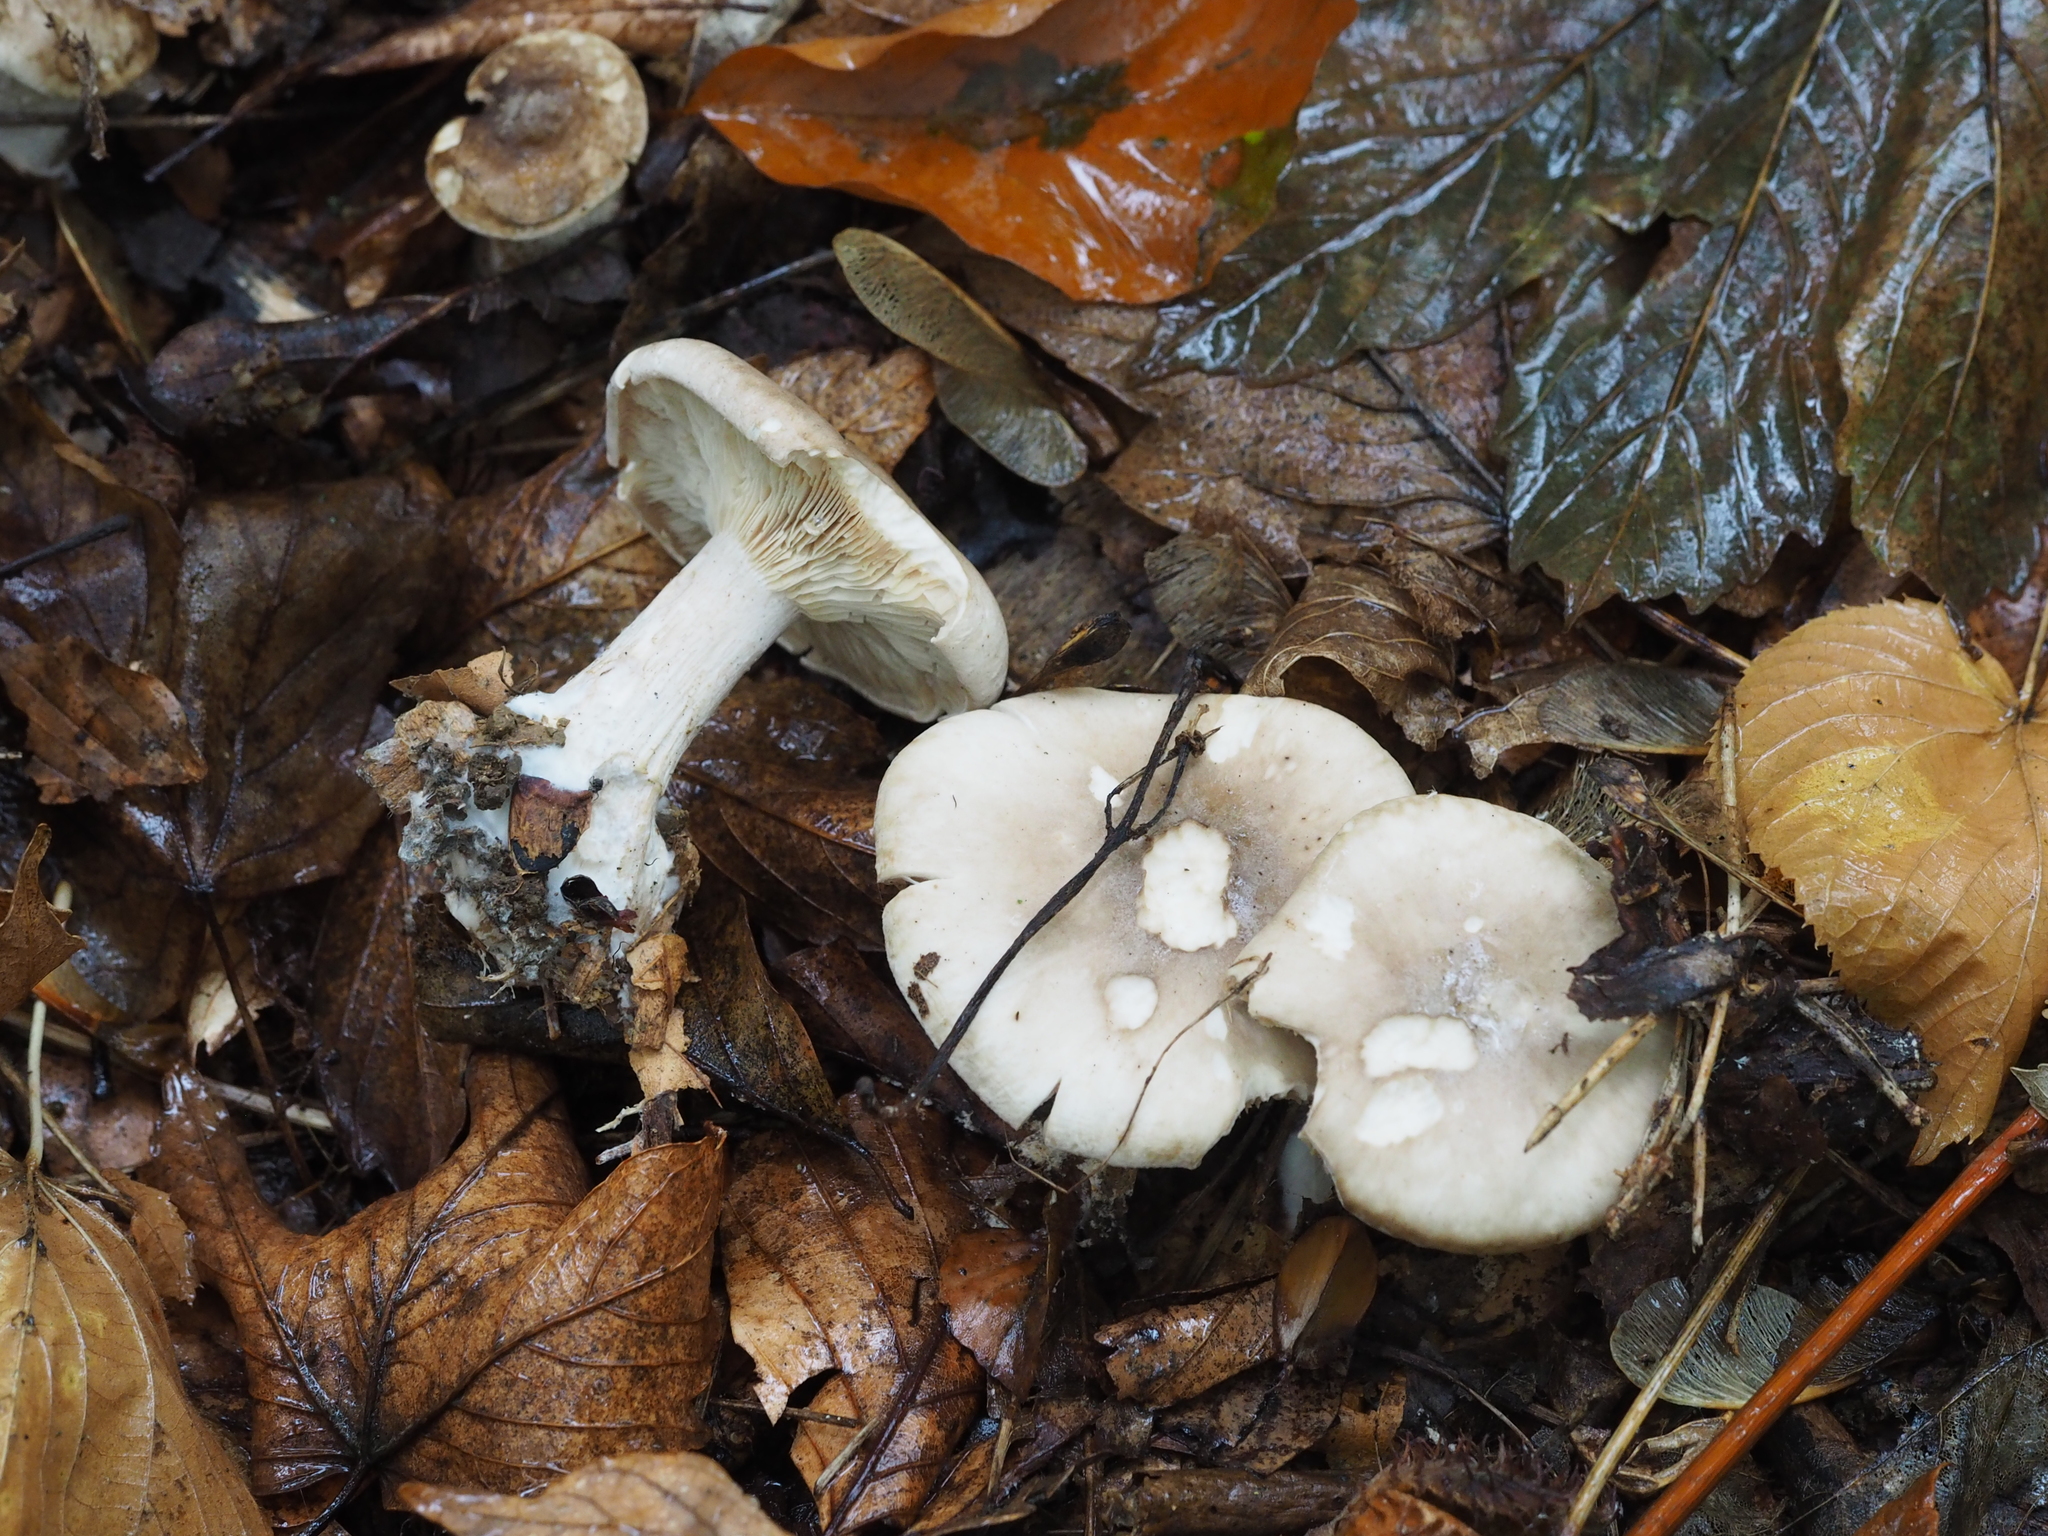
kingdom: Fungi
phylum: Basidiomycota
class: Agaricomycetes
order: Agaricales
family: Tricholomataceae
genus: Clitocybe
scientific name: Clitocybe nebularis
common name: Clouded agaric
